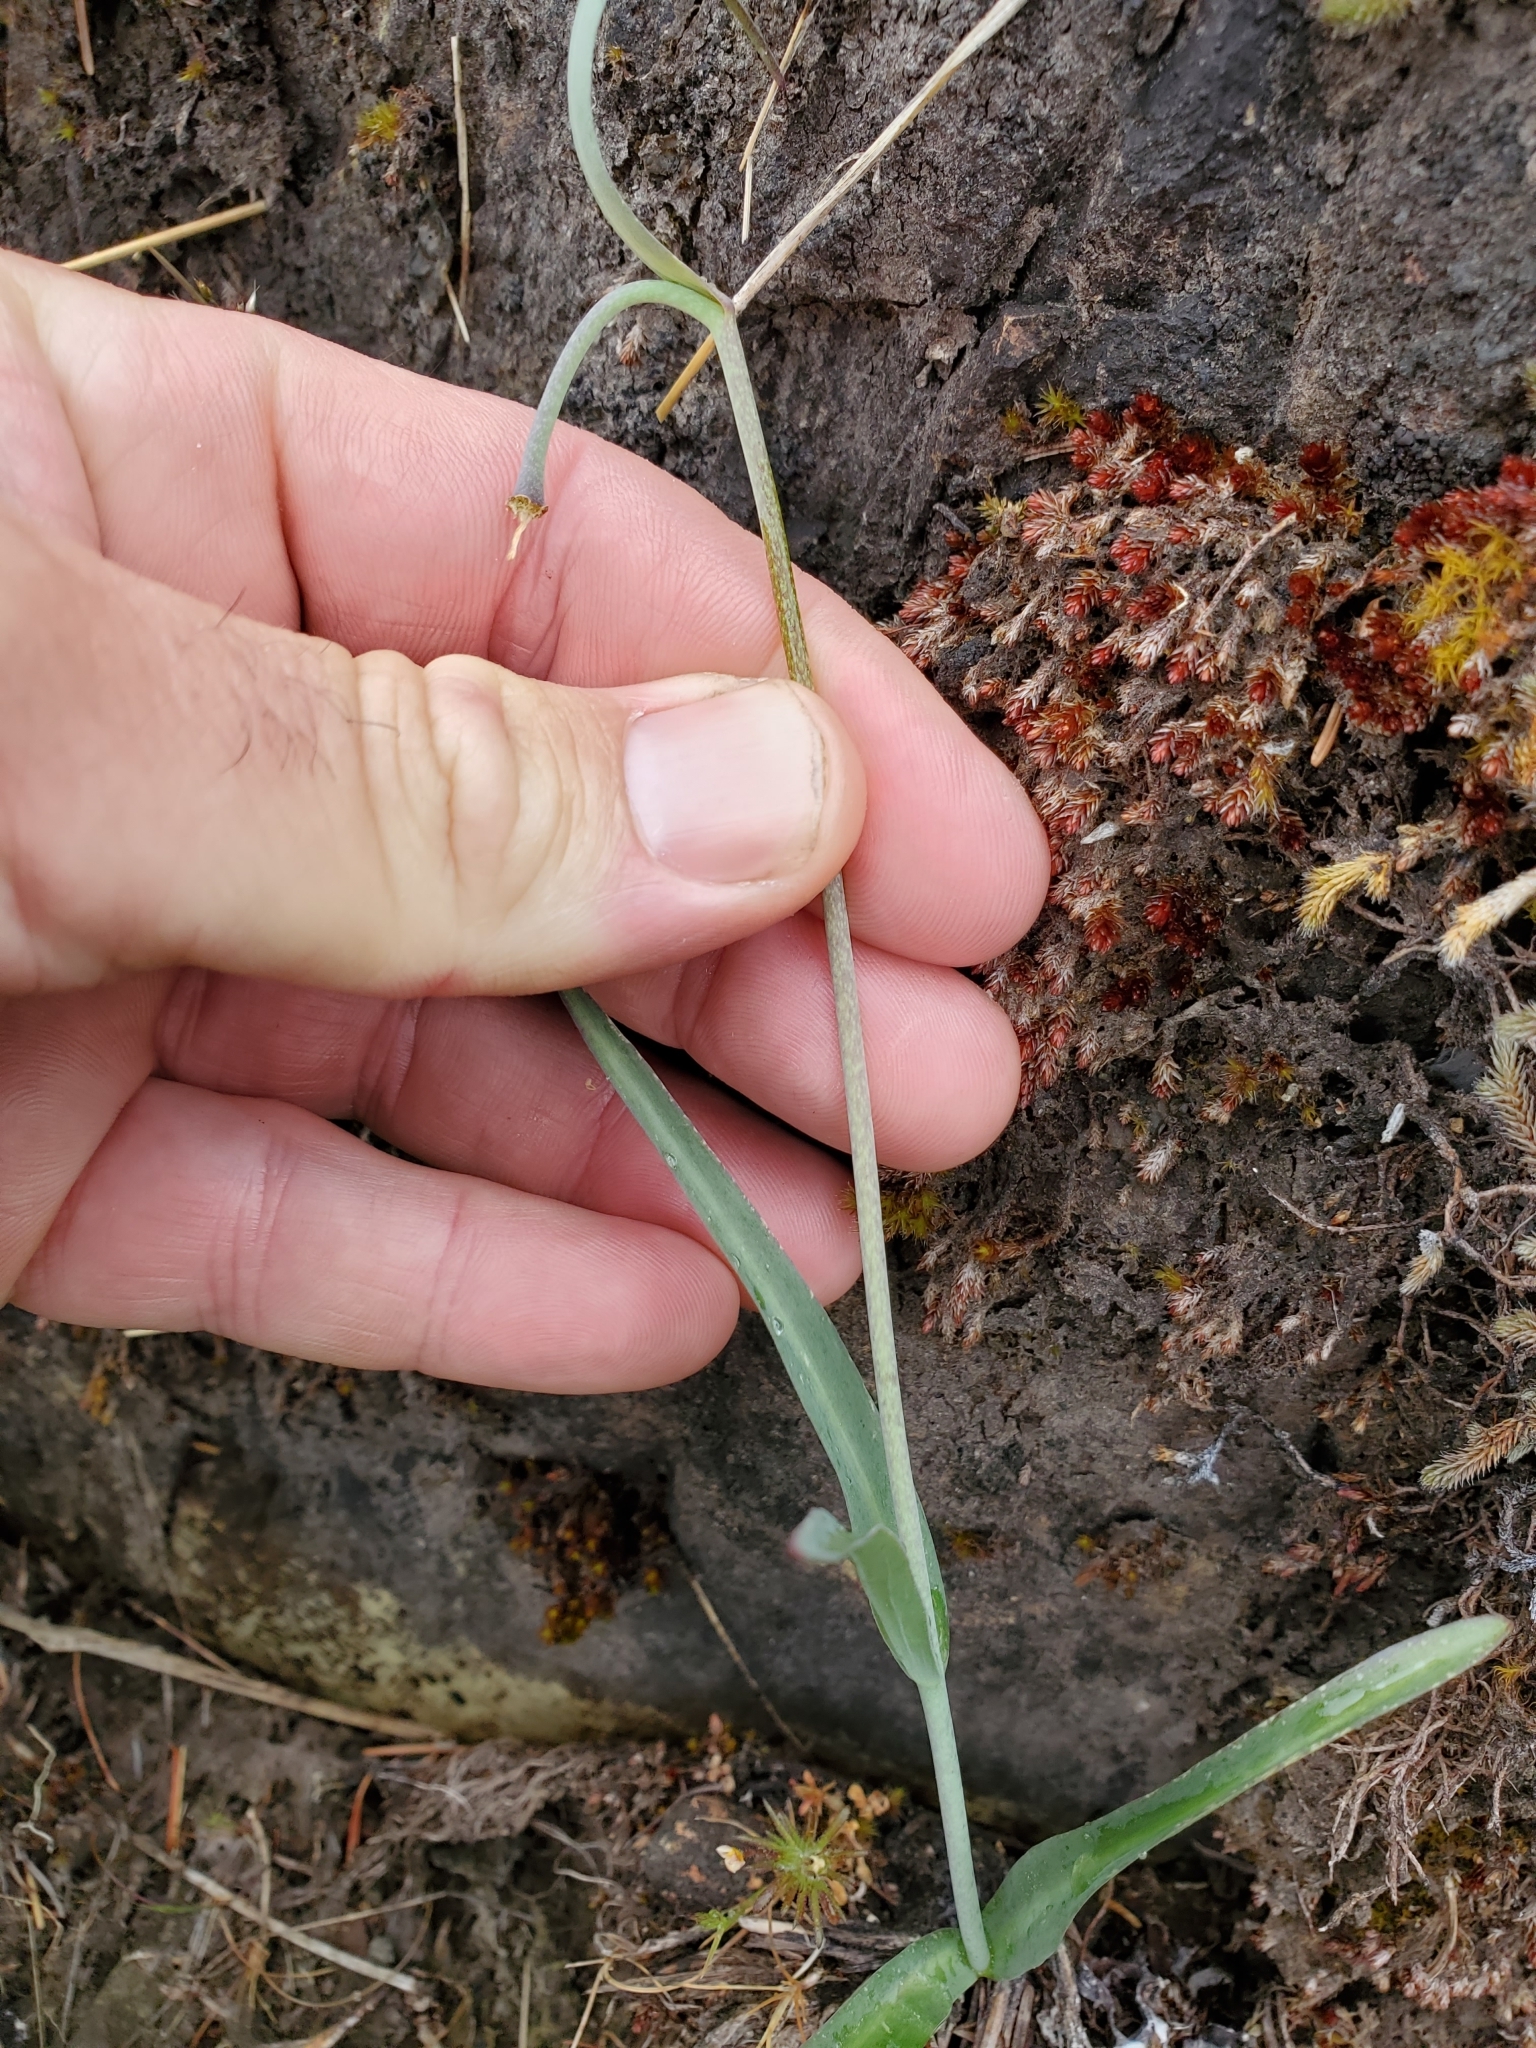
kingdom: Plantae
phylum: Tracheophyta
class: Liliopsida
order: Liliales
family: Liliaceae
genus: Fritillaria
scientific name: Fritillaria affinis
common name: Ojai fritillary
